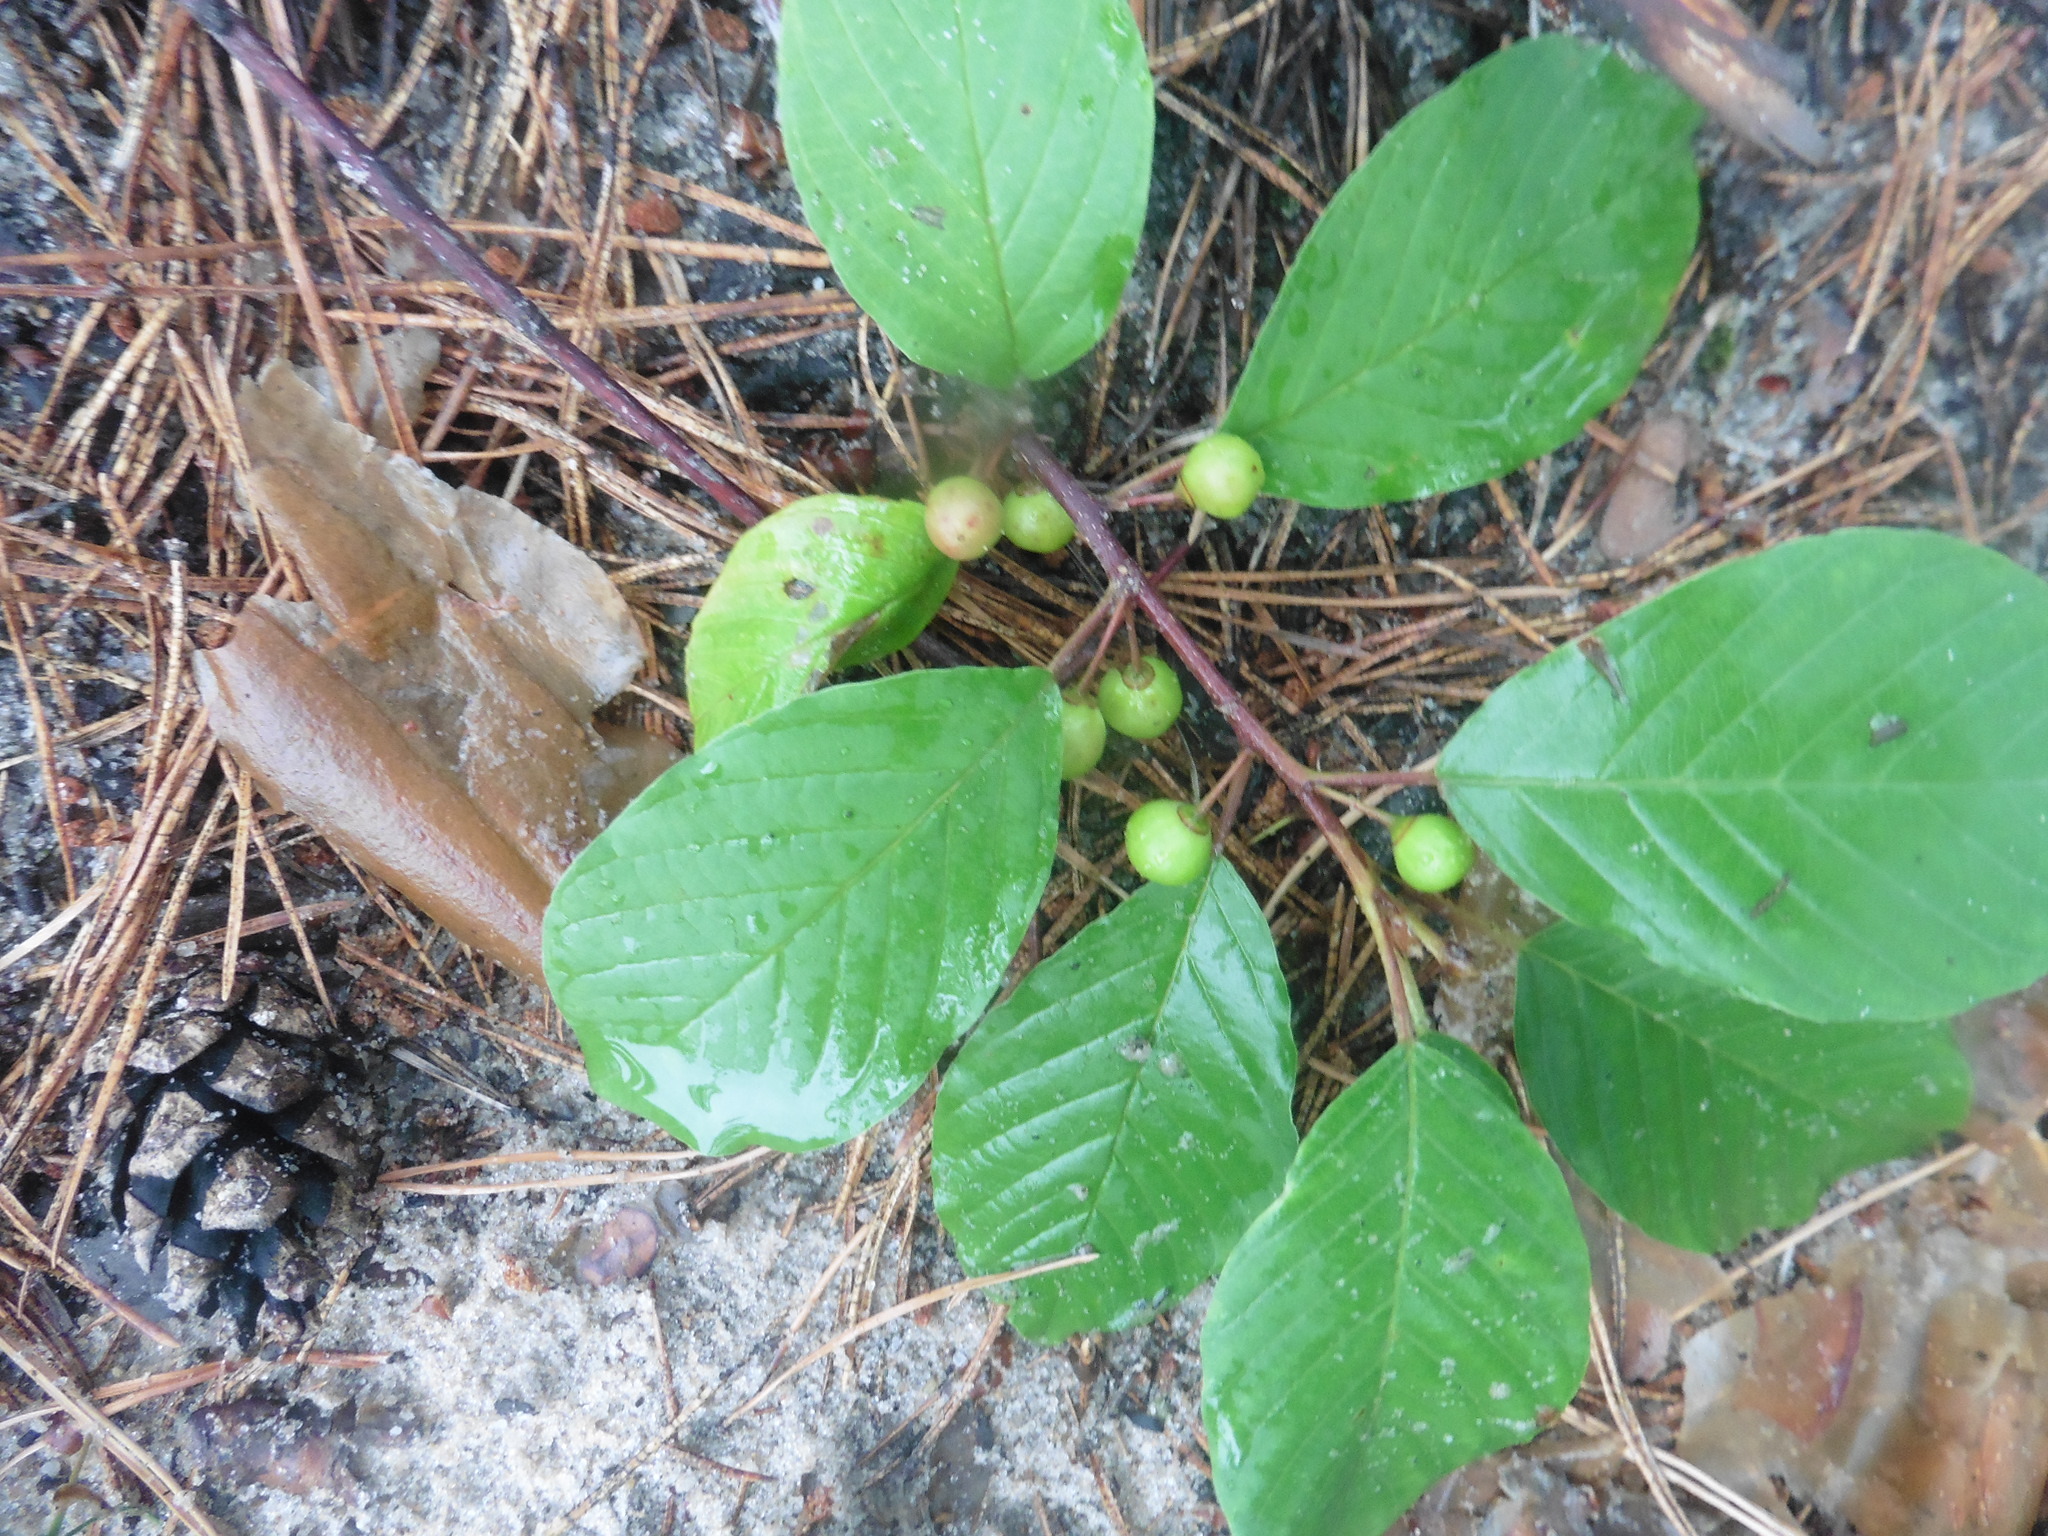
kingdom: Plantae
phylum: Tracheophyta
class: Magnoliopsida
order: Rosales
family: Rhamnaceae
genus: Frangula
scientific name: Frangula alnus
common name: Alder buckthorn
